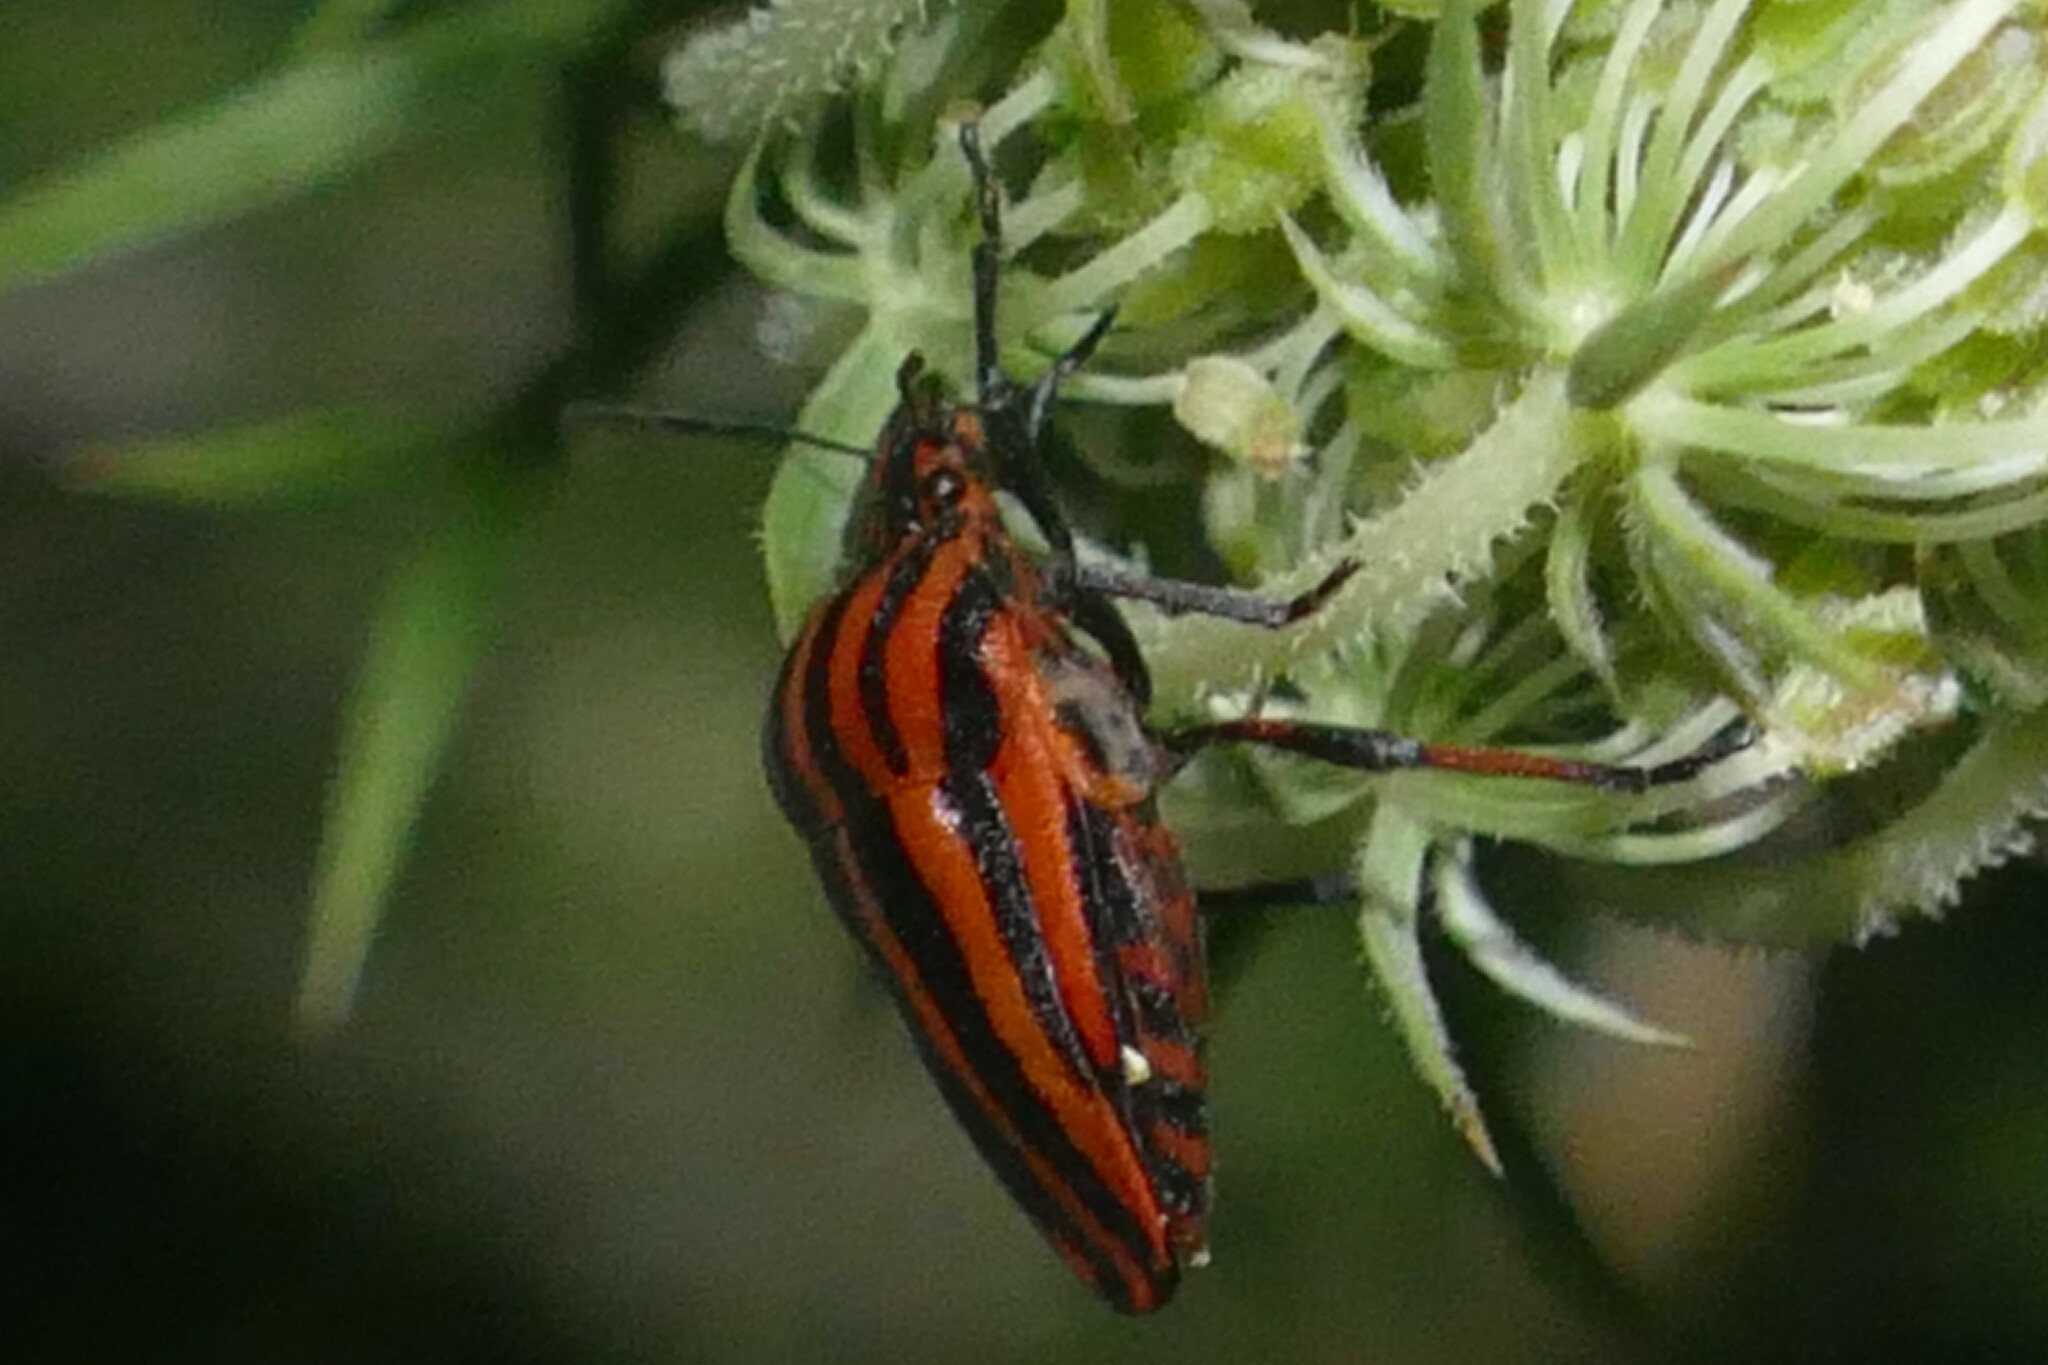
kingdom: Animalia
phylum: Arthropoda
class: Insecta
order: Hemiptera
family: Pentatomidae
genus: Graphosoma
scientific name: Graphosoma italicum
